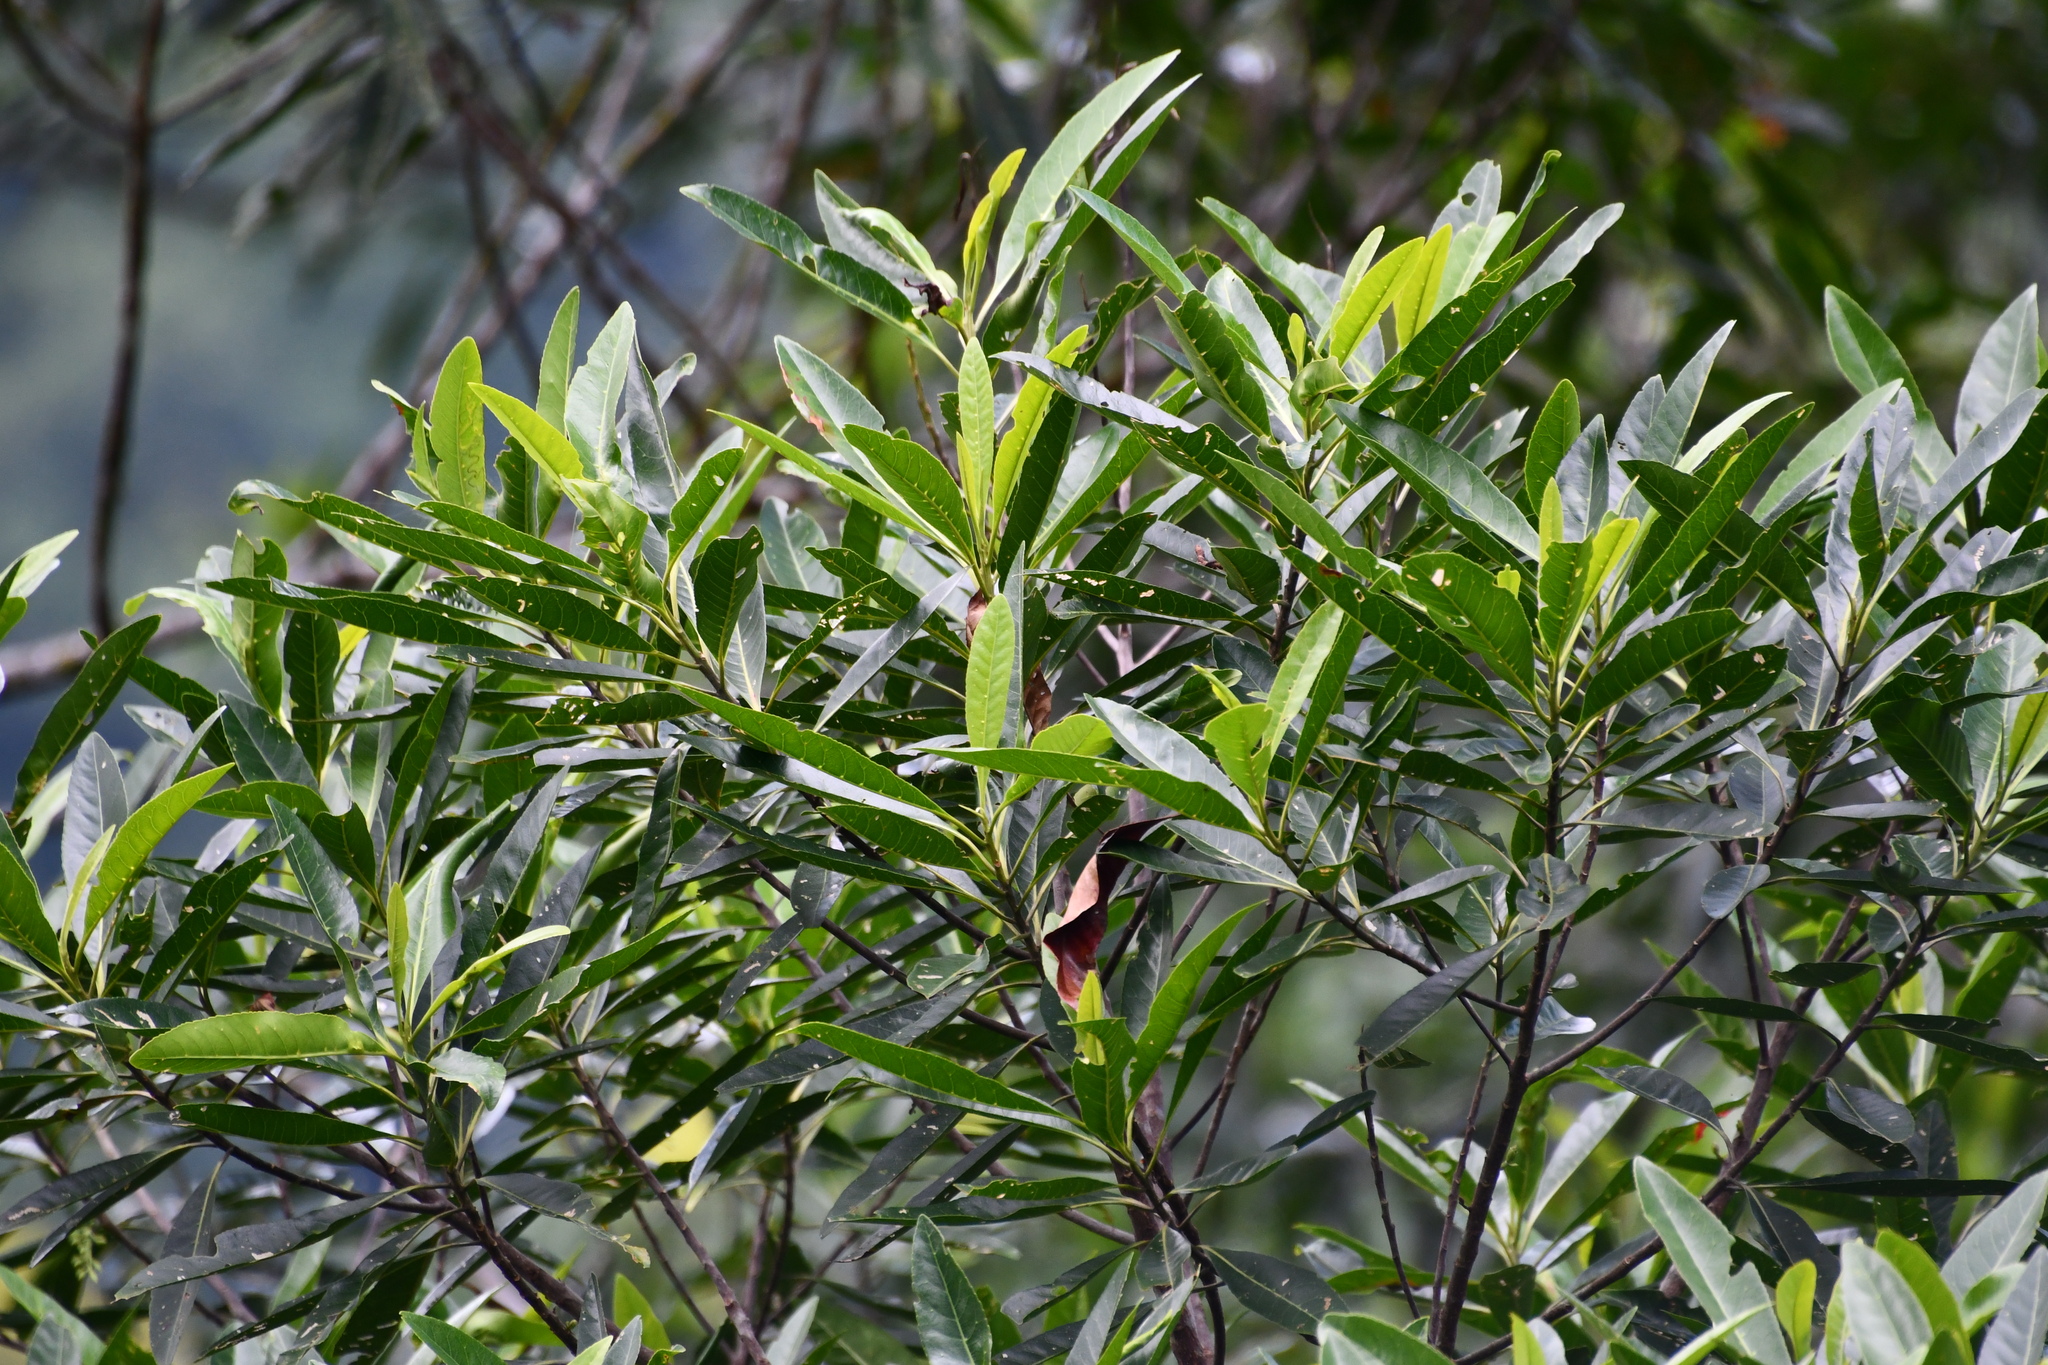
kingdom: Plantae
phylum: Tracheophyta
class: Magnoliopsida
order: Oxalidales
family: Elaeocarpaceae
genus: Elaeocarpus
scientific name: Elaeocarpus angustifolius
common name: Blue marble tree
